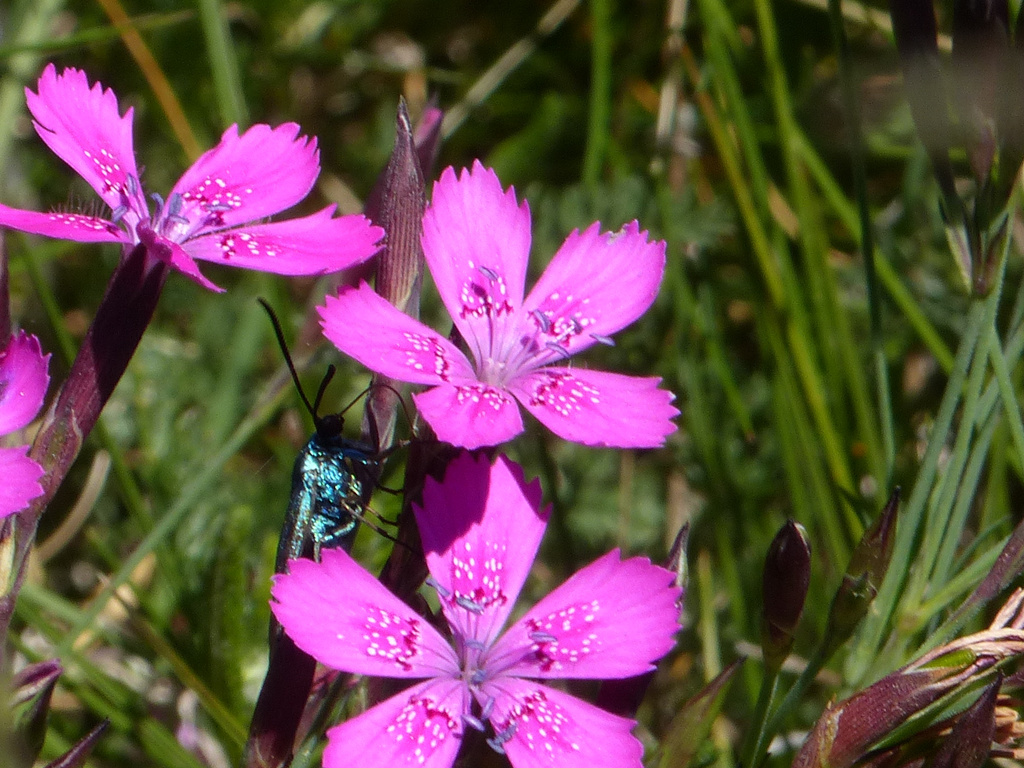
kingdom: Plantae
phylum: Tracheophyta
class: Magnoliopsida
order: Caryophyllales
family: Caryophyllaceae
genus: Dianthus
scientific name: Dianthus deltoides
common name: Maiden pink
